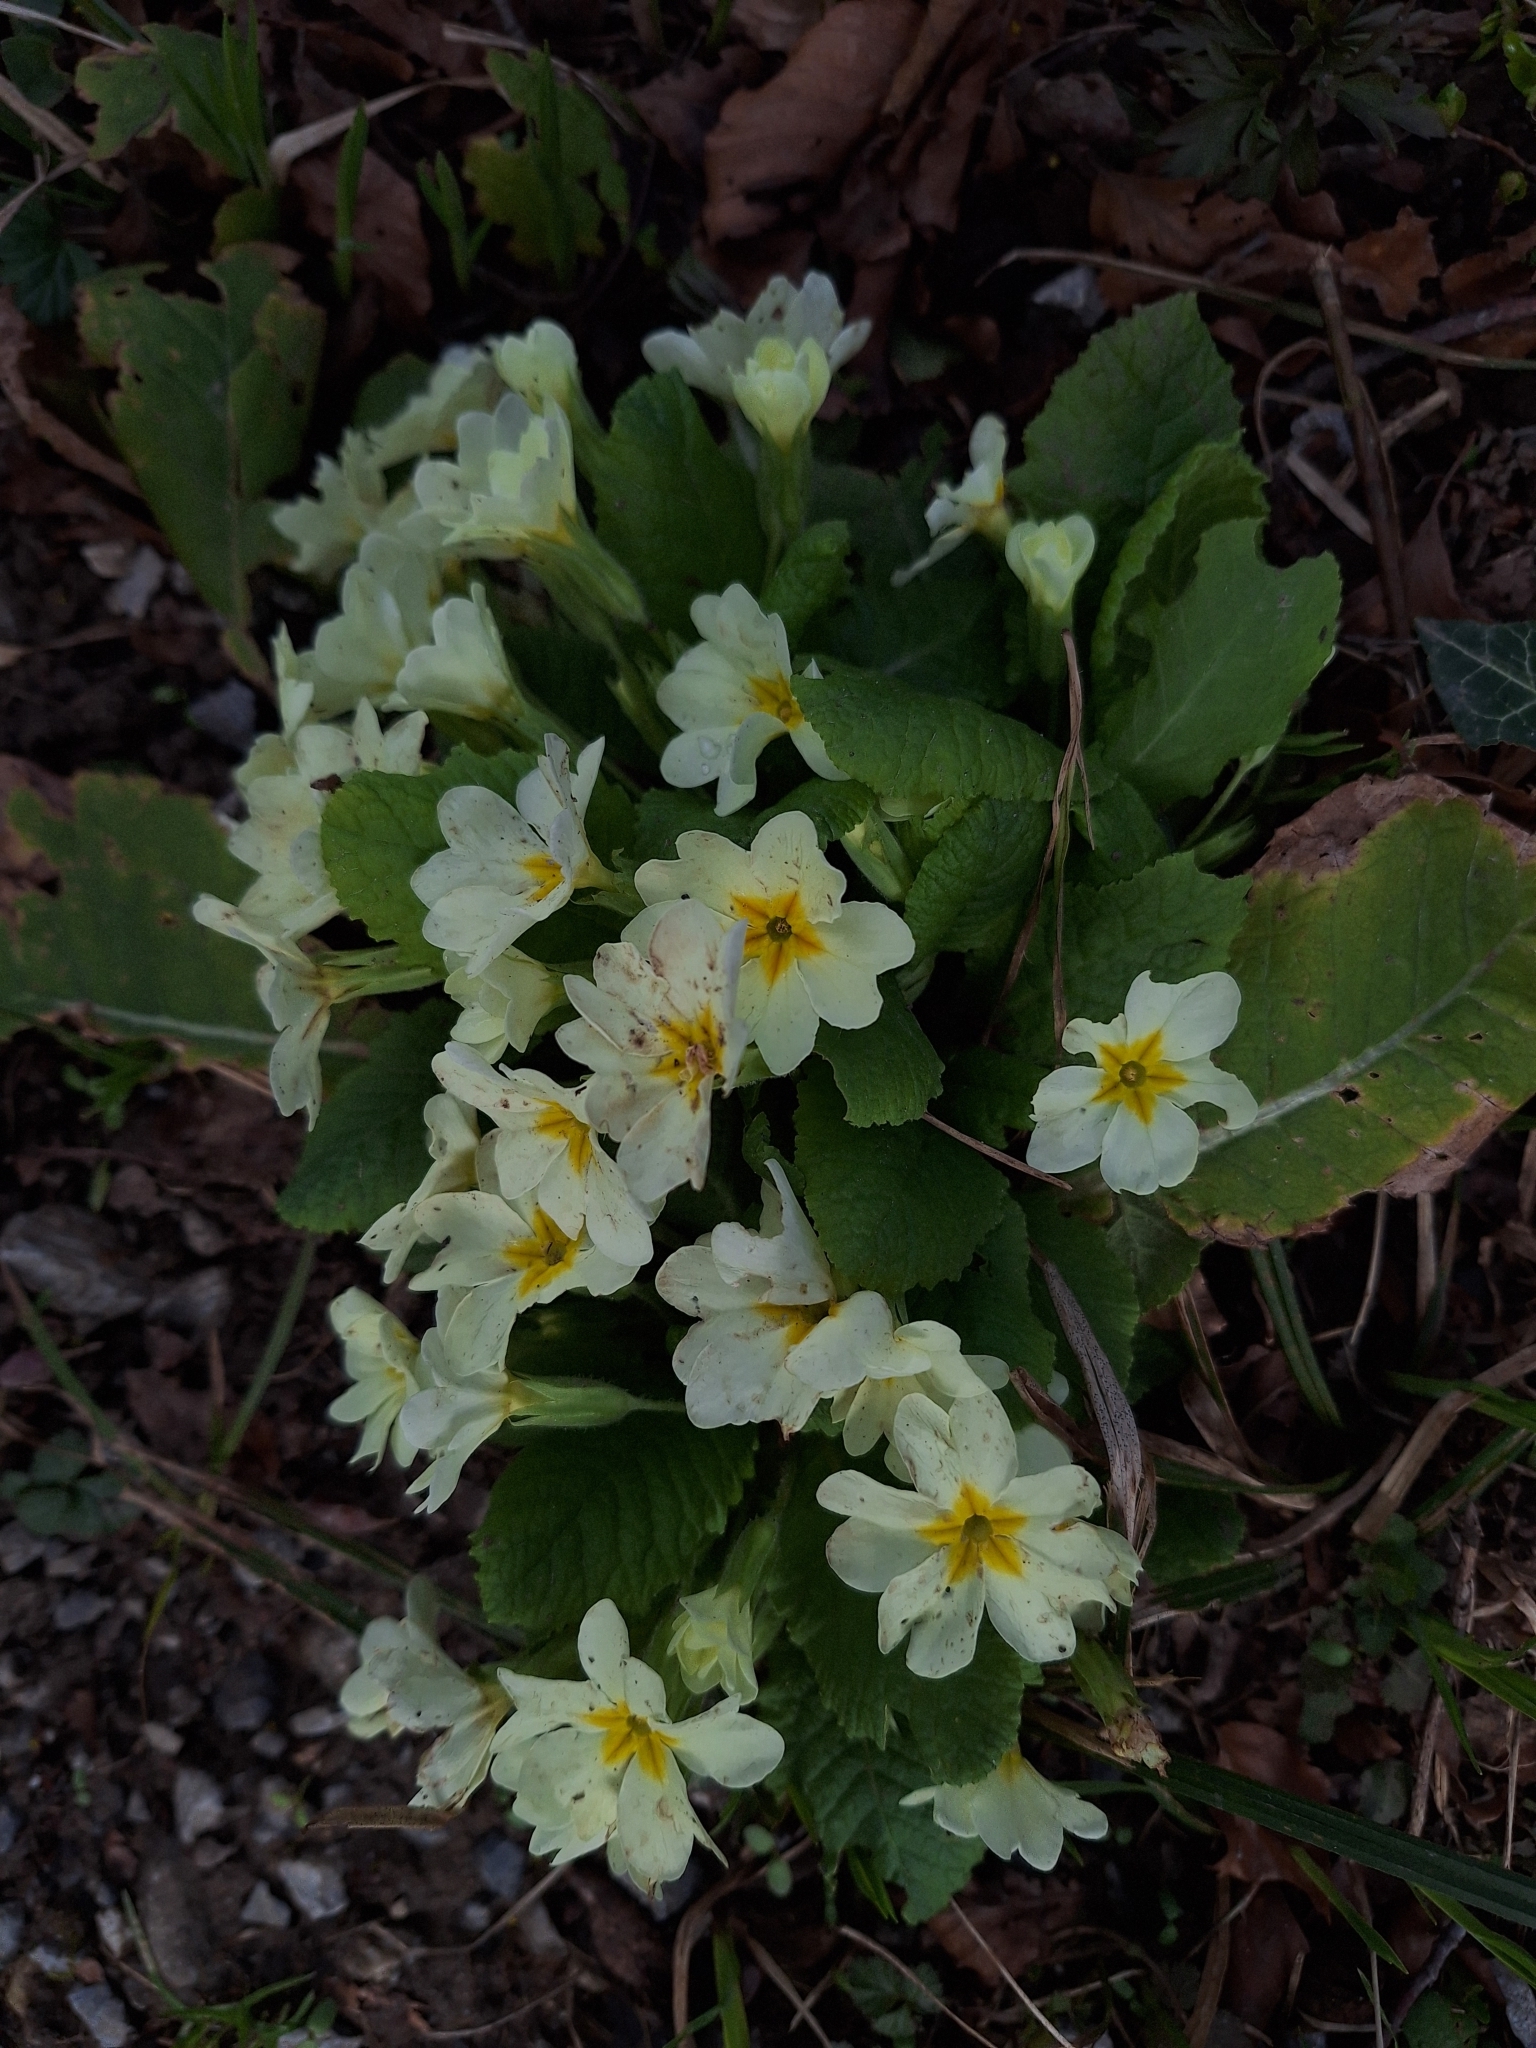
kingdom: Plantae
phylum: Tracheophyta
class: Magnoliopsida
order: Ericales
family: Primulaceae
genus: Primula
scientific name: Primula vulgaris
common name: Primrose
